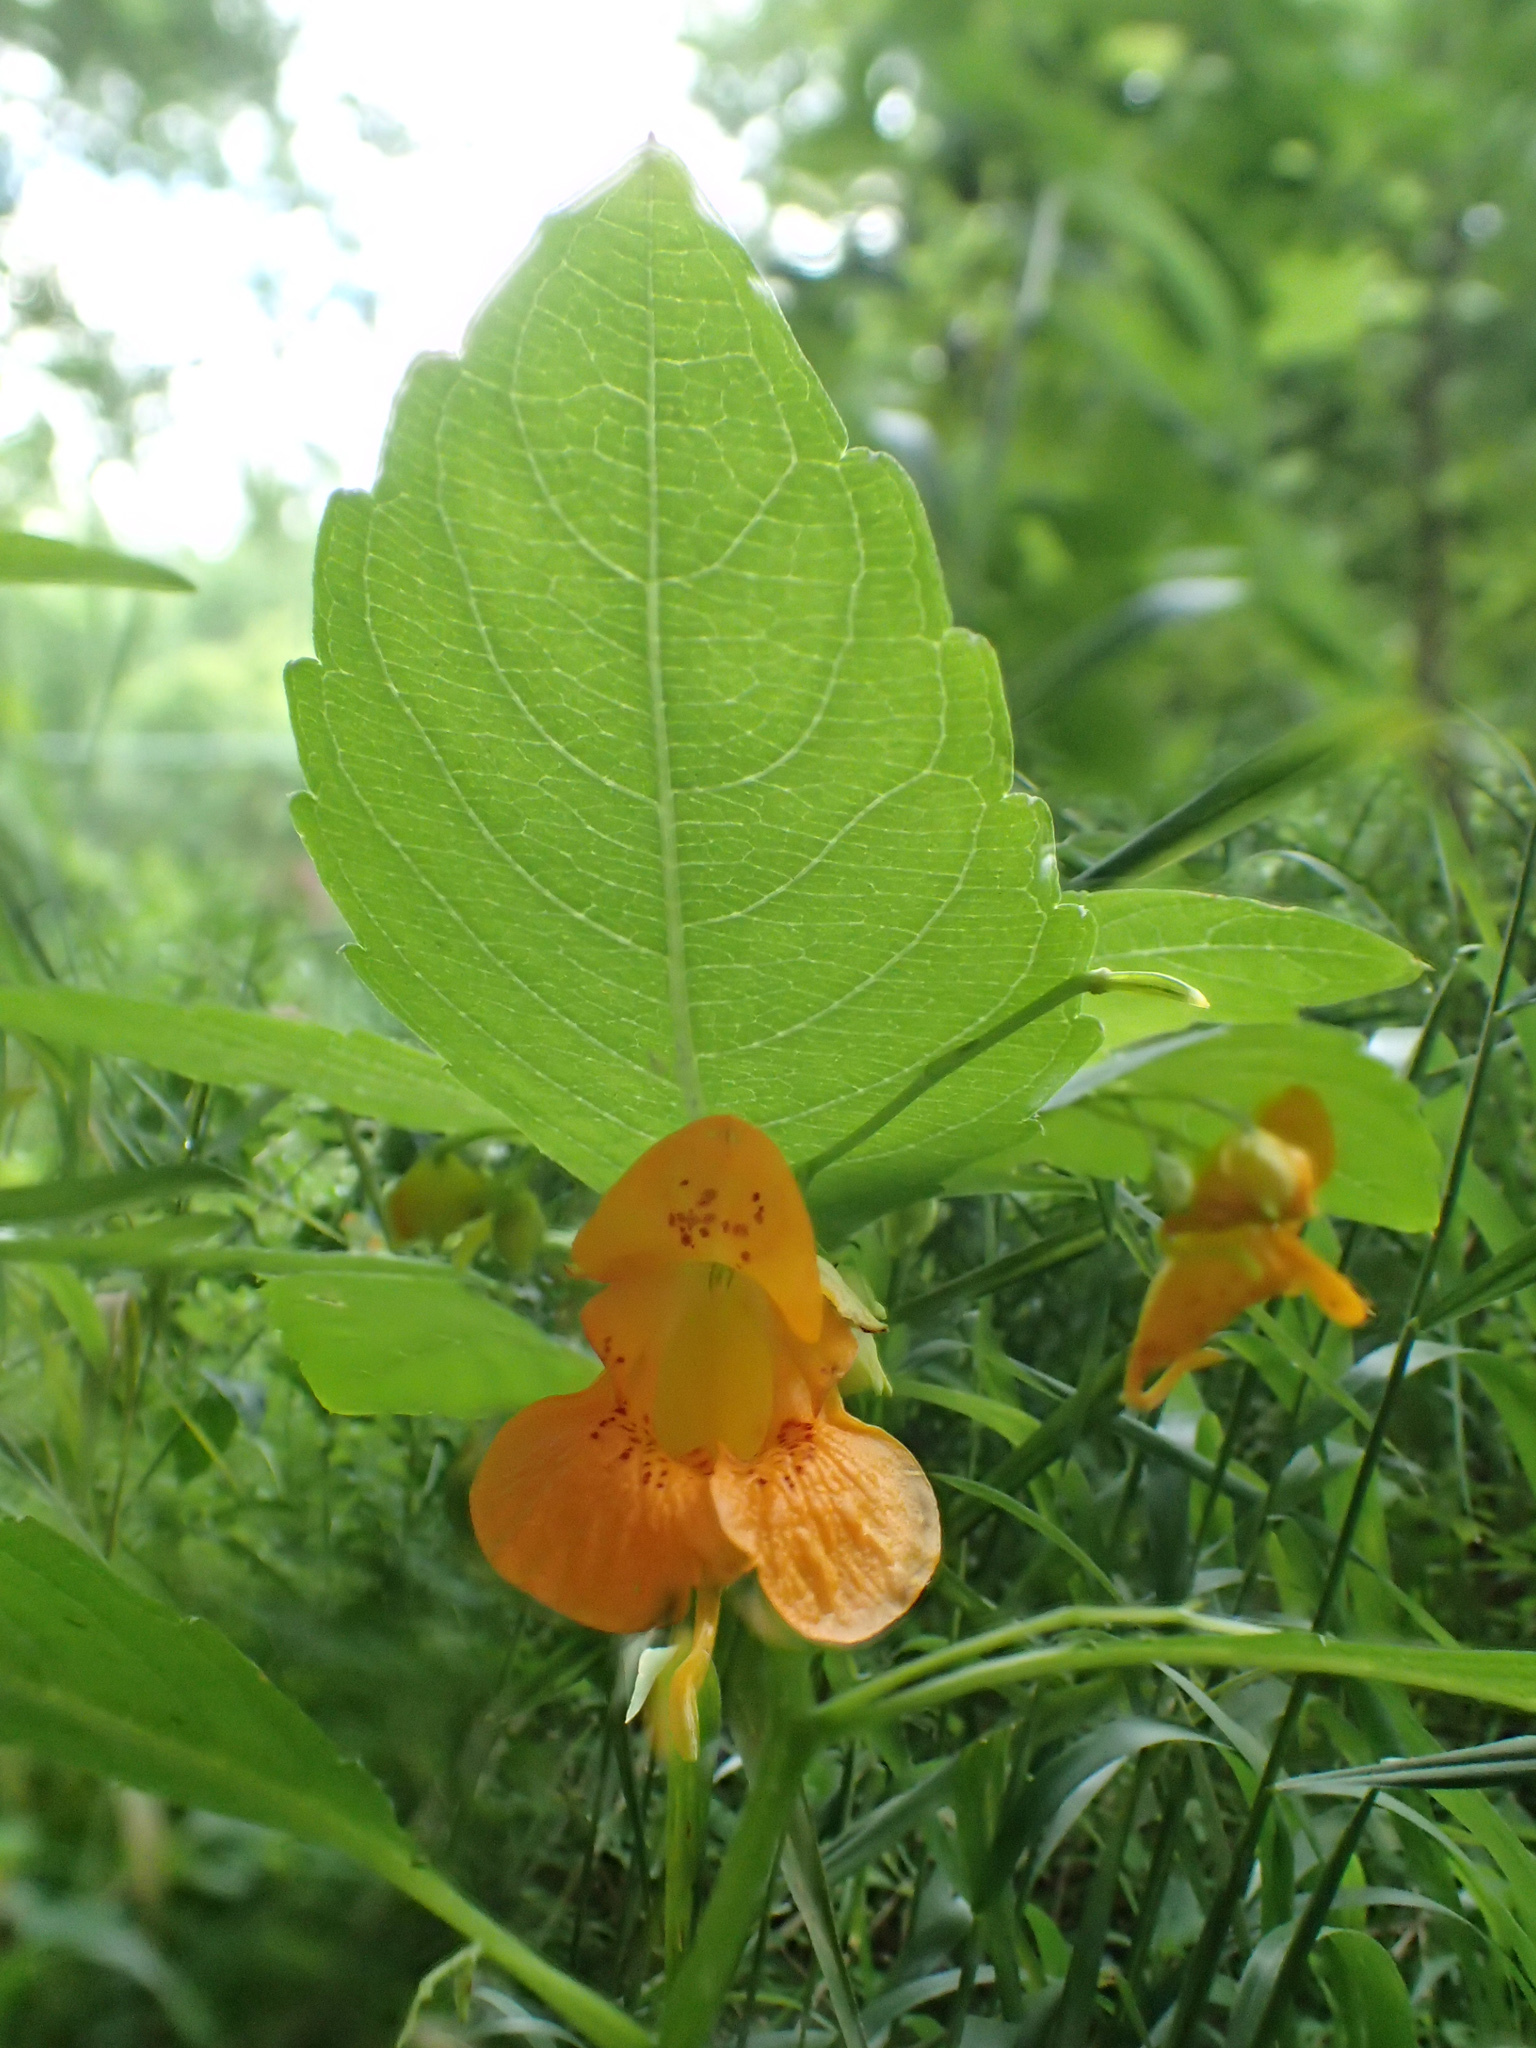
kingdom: Plantae
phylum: Tracheophyta
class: Magnoliopsida
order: Ericales
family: Balsaminaceae
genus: Impatiens
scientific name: Impatiens capensis
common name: Orange balsam
